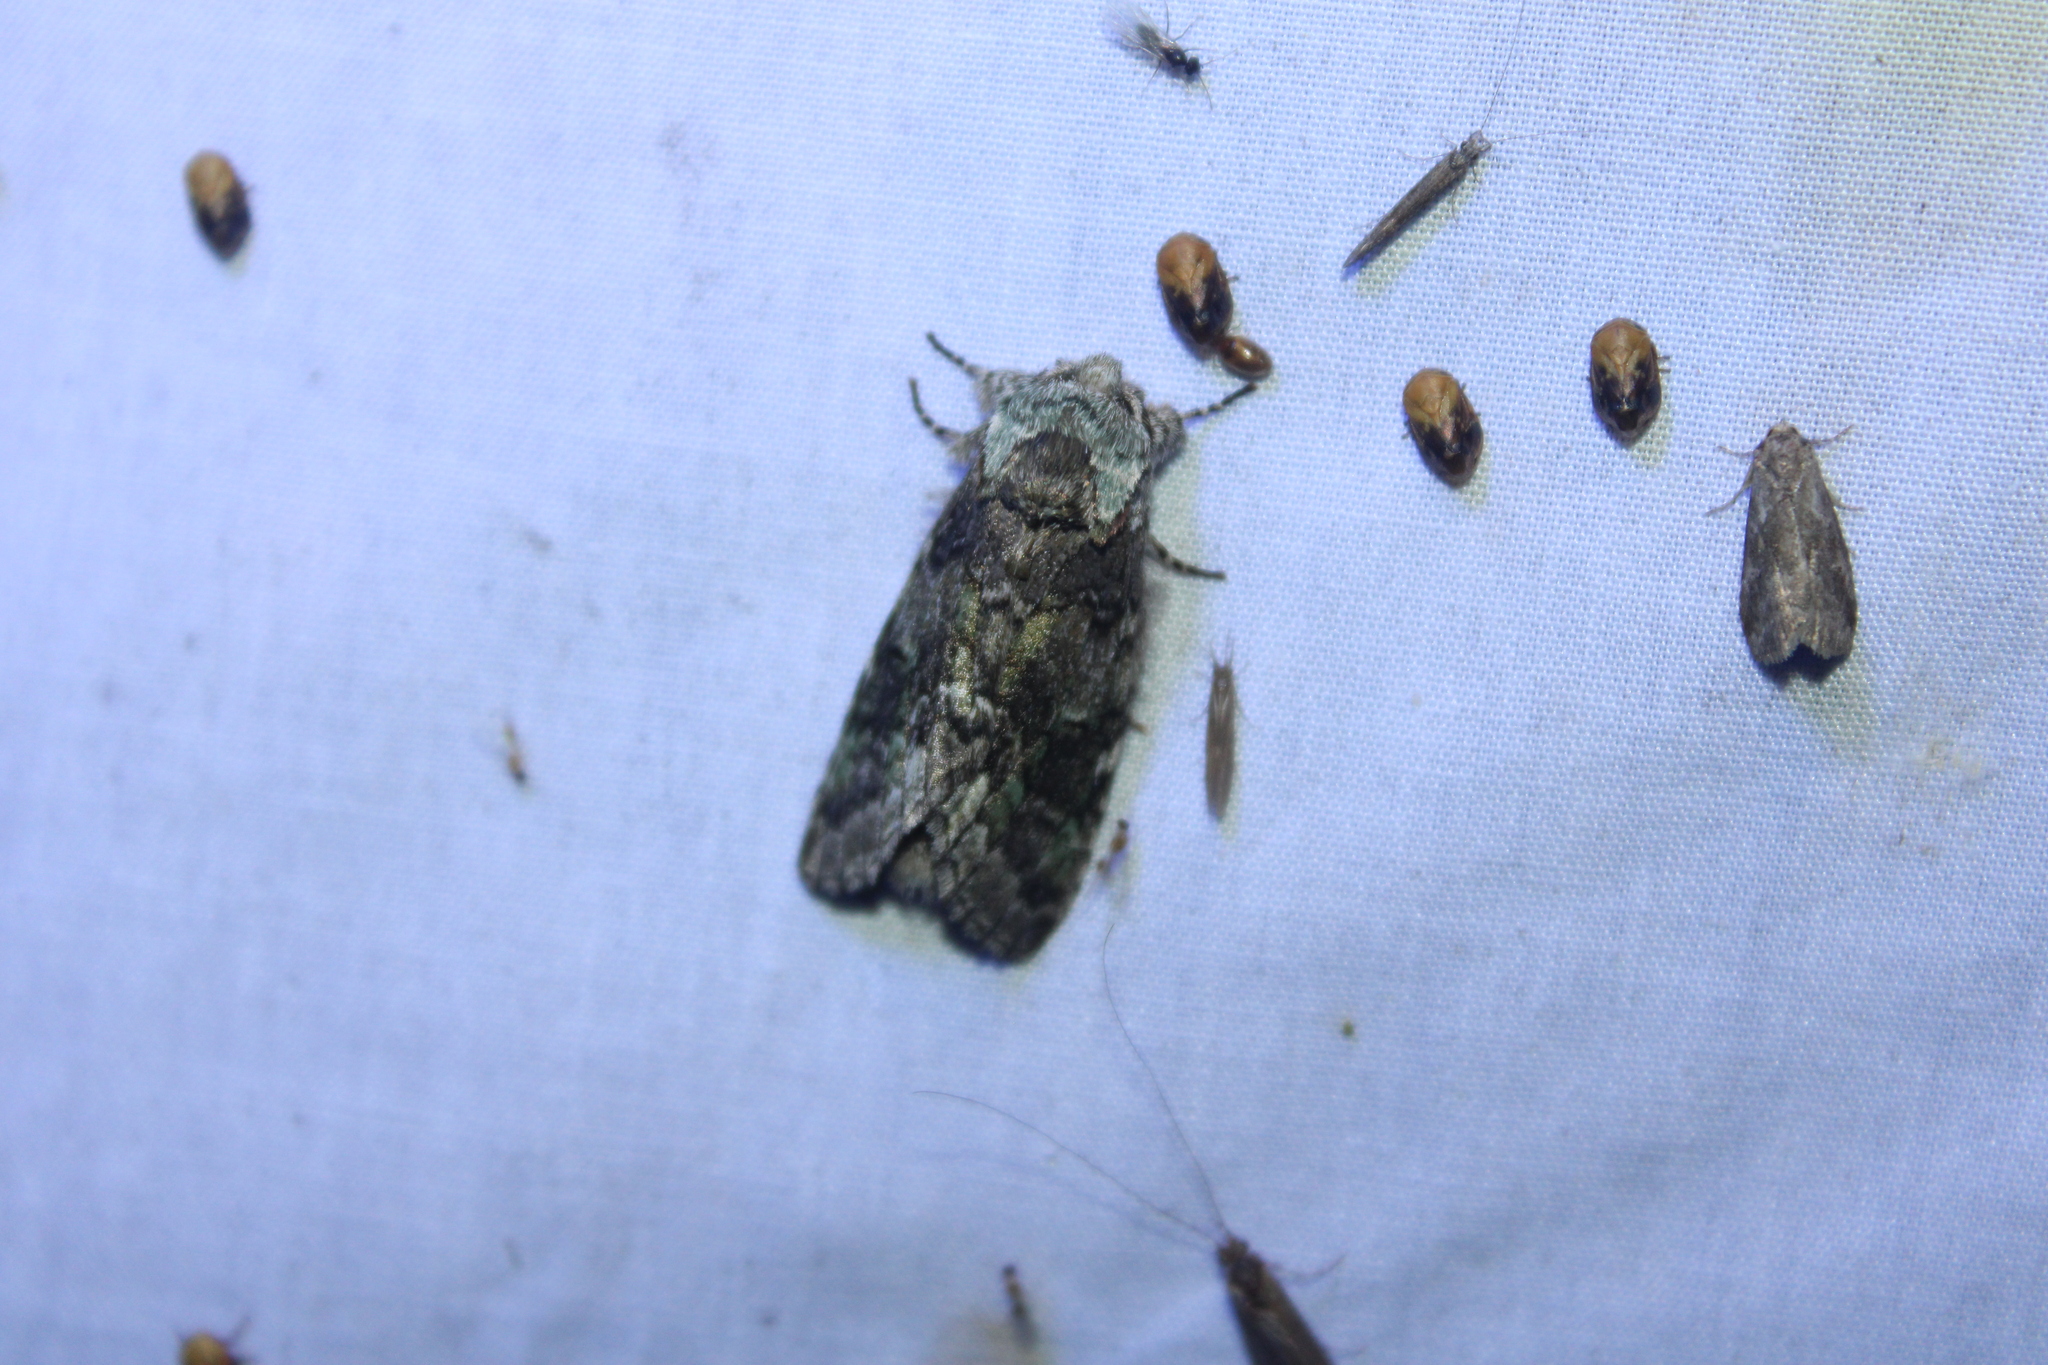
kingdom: Animalia
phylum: Arthropoda
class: Insecta
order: Lepidoptera
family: Notodontidae
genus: Macrurocampa
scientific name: Macrurocampa marthesia
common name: Mottled prominent
